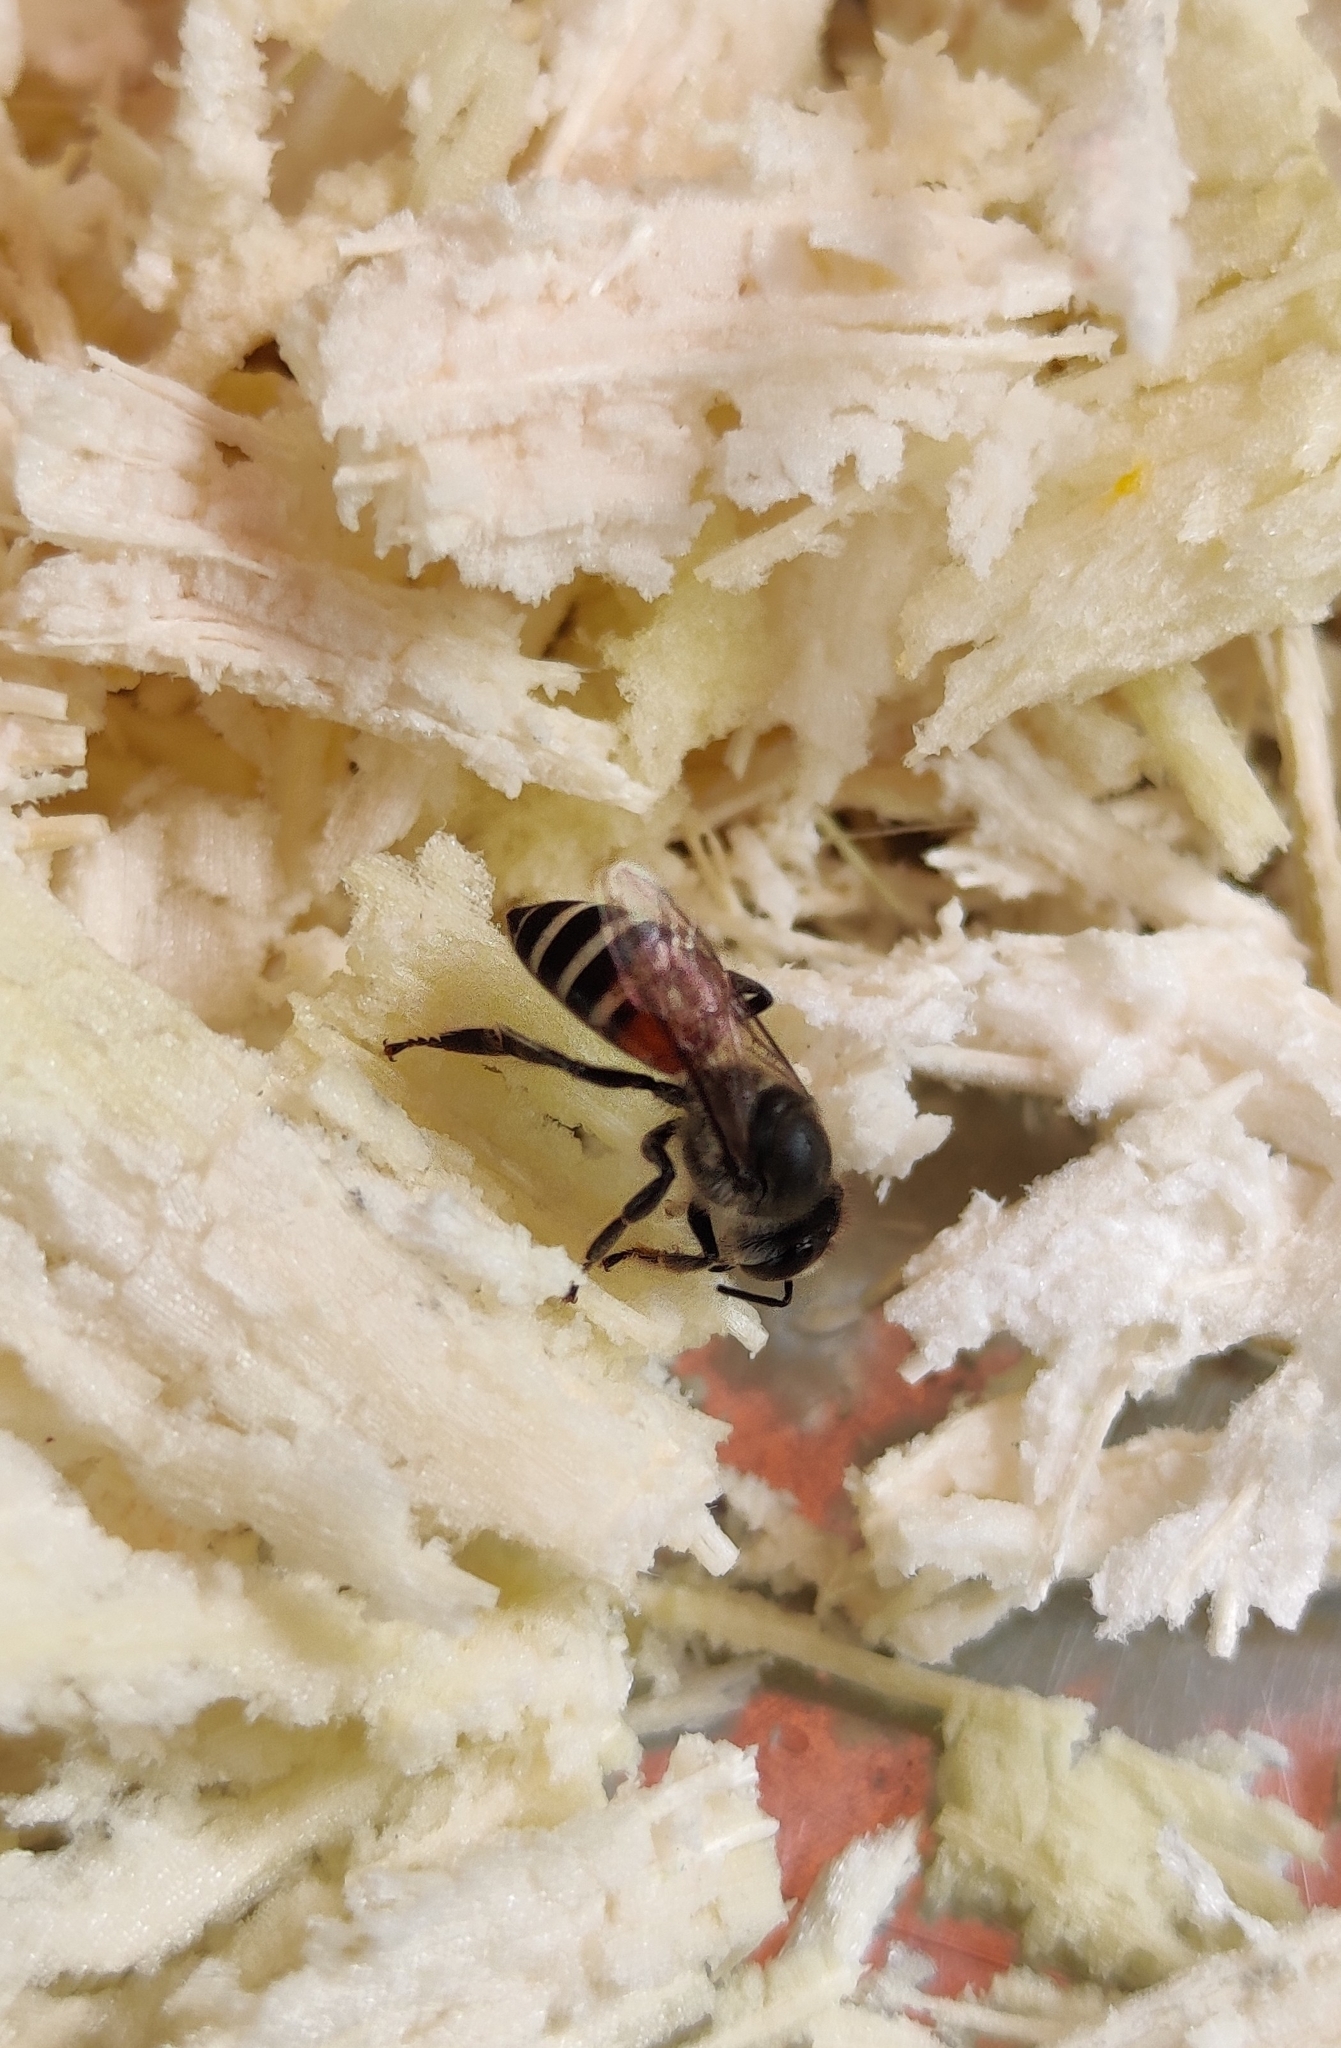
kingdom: Animalia
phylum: Arthropoda
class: Insecta
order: Hymenoptera
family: Apidae
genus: Apis
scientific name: Apis florea
